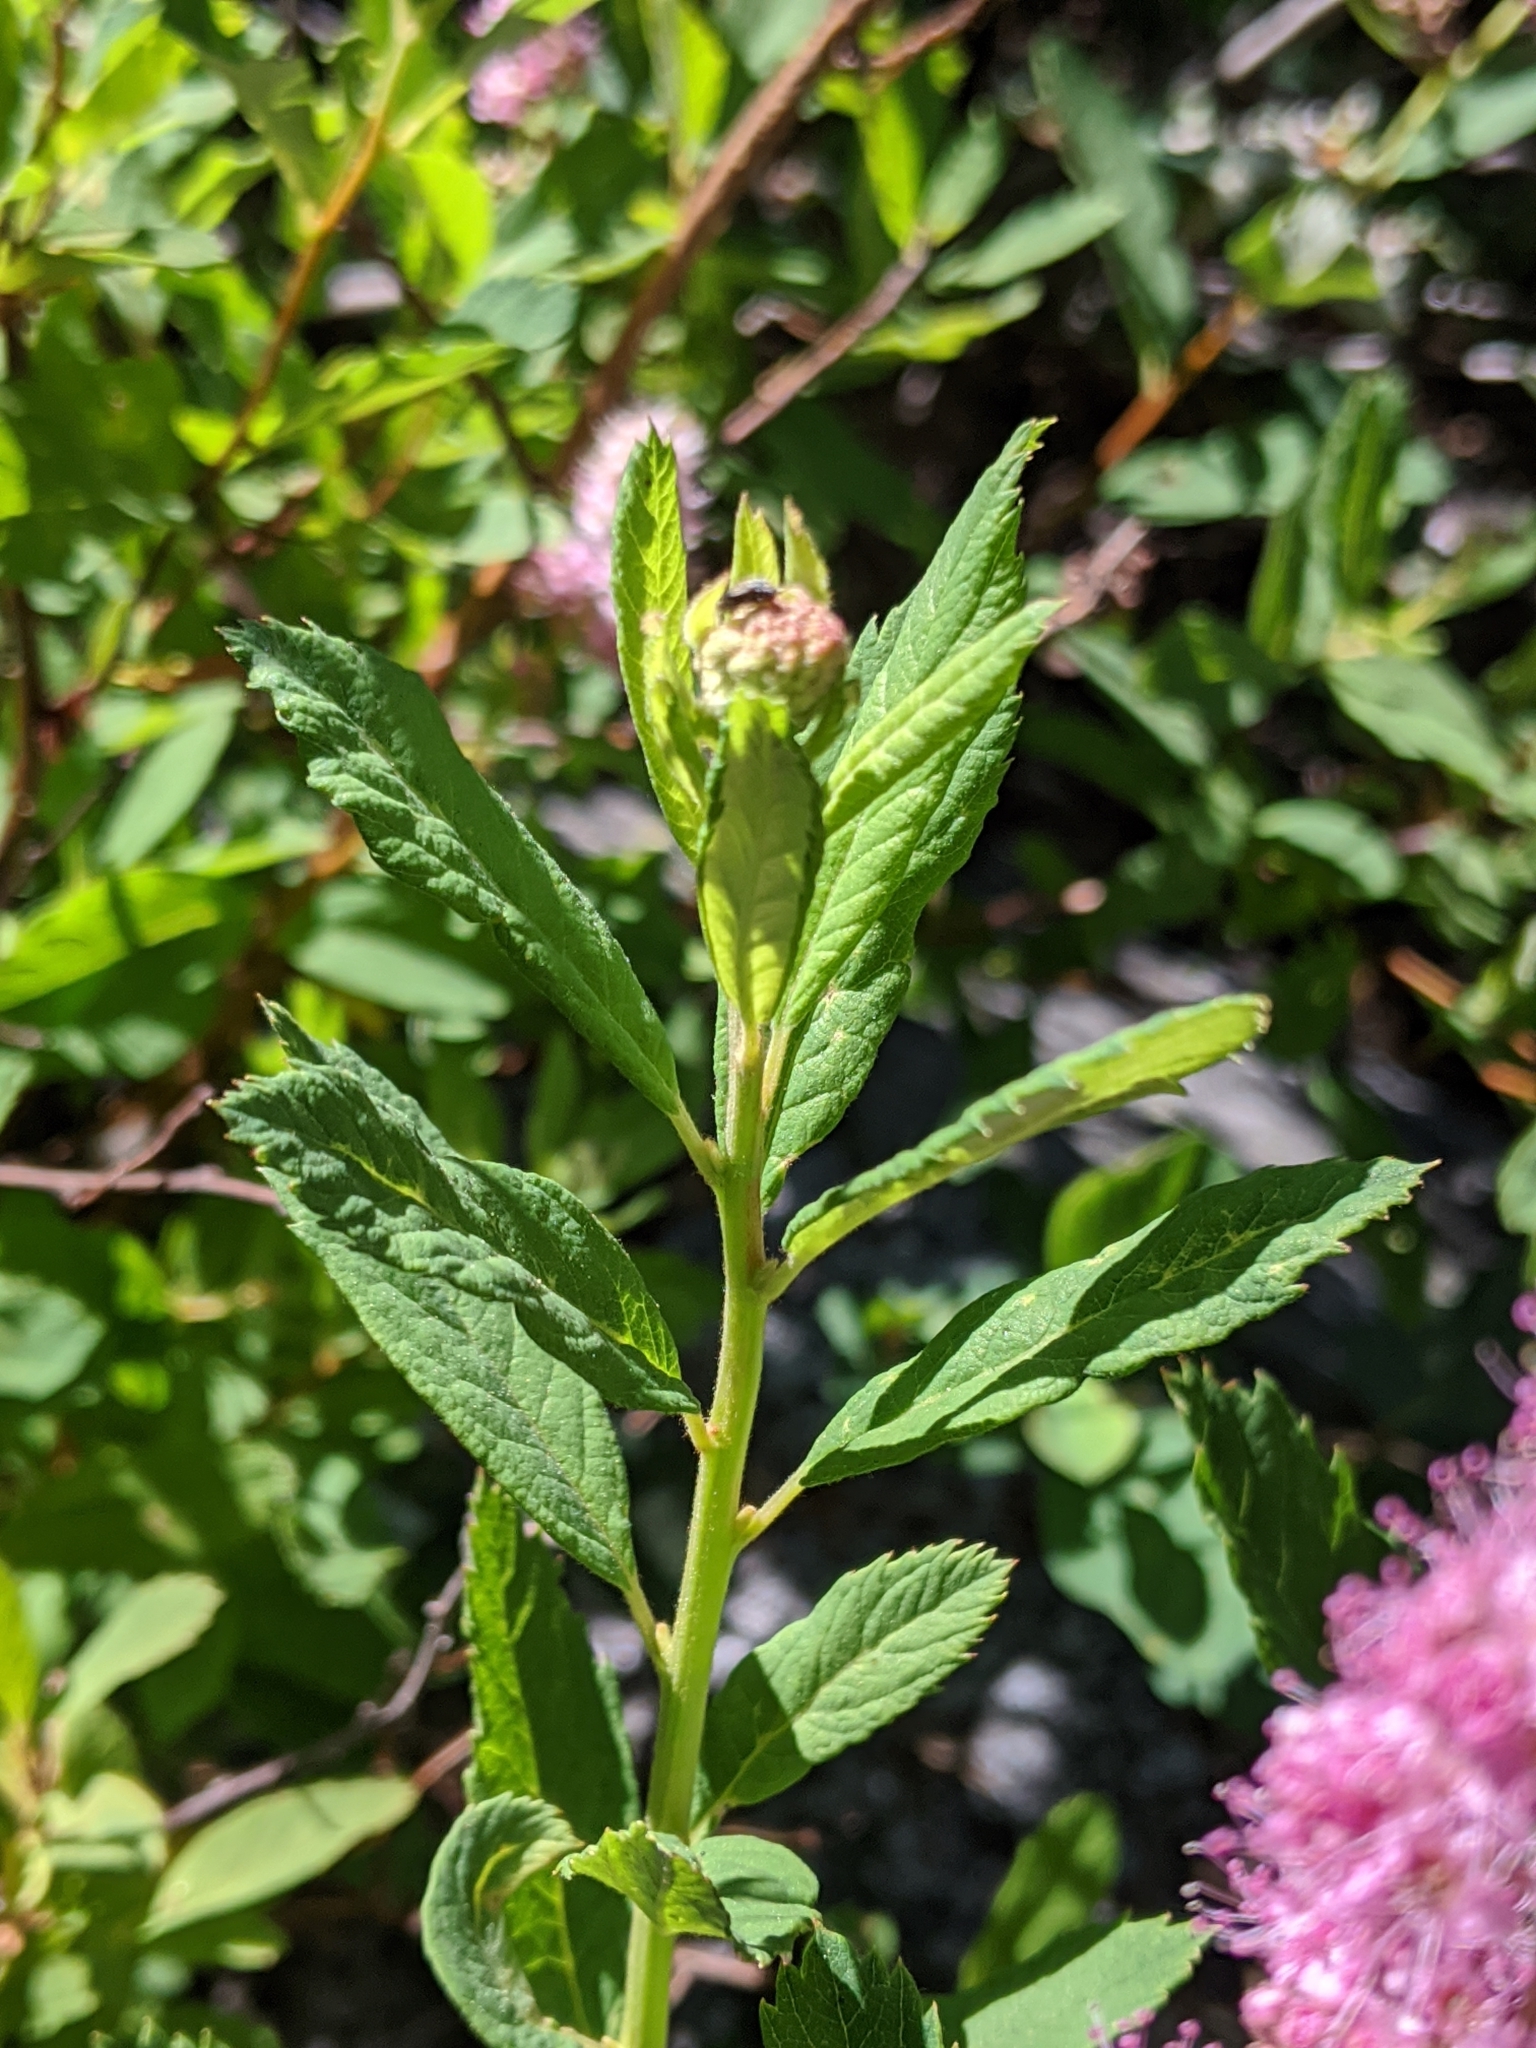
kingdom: Plantae
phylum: Tracheophyta
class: Magnoliopsida
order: Rosales
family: Rosaceae
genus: Spiraea
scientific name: Spiraea douglasii
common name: Steeplebush
